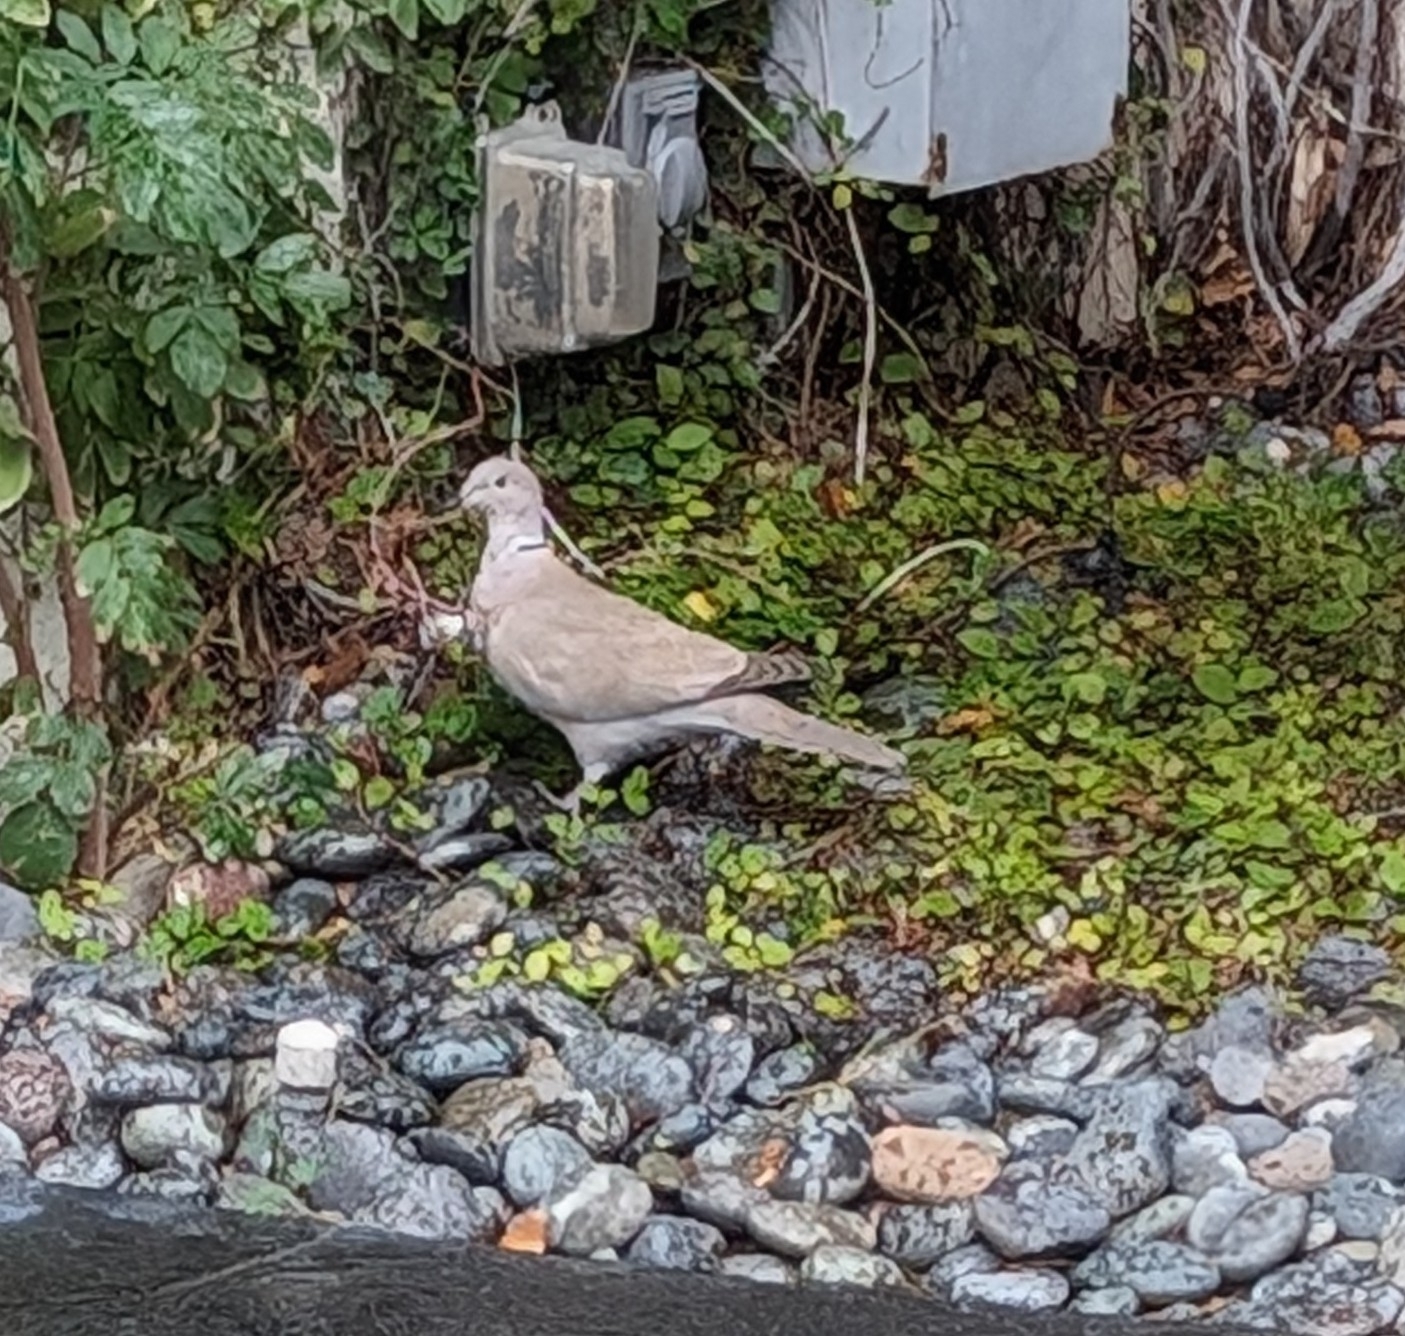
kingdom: Animalia
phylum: Chordata
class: Aves
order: Columbiformes
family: Columbidae
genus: Streptopelia
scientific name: Streptopelia decaocto
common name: Eurasian collared dove
